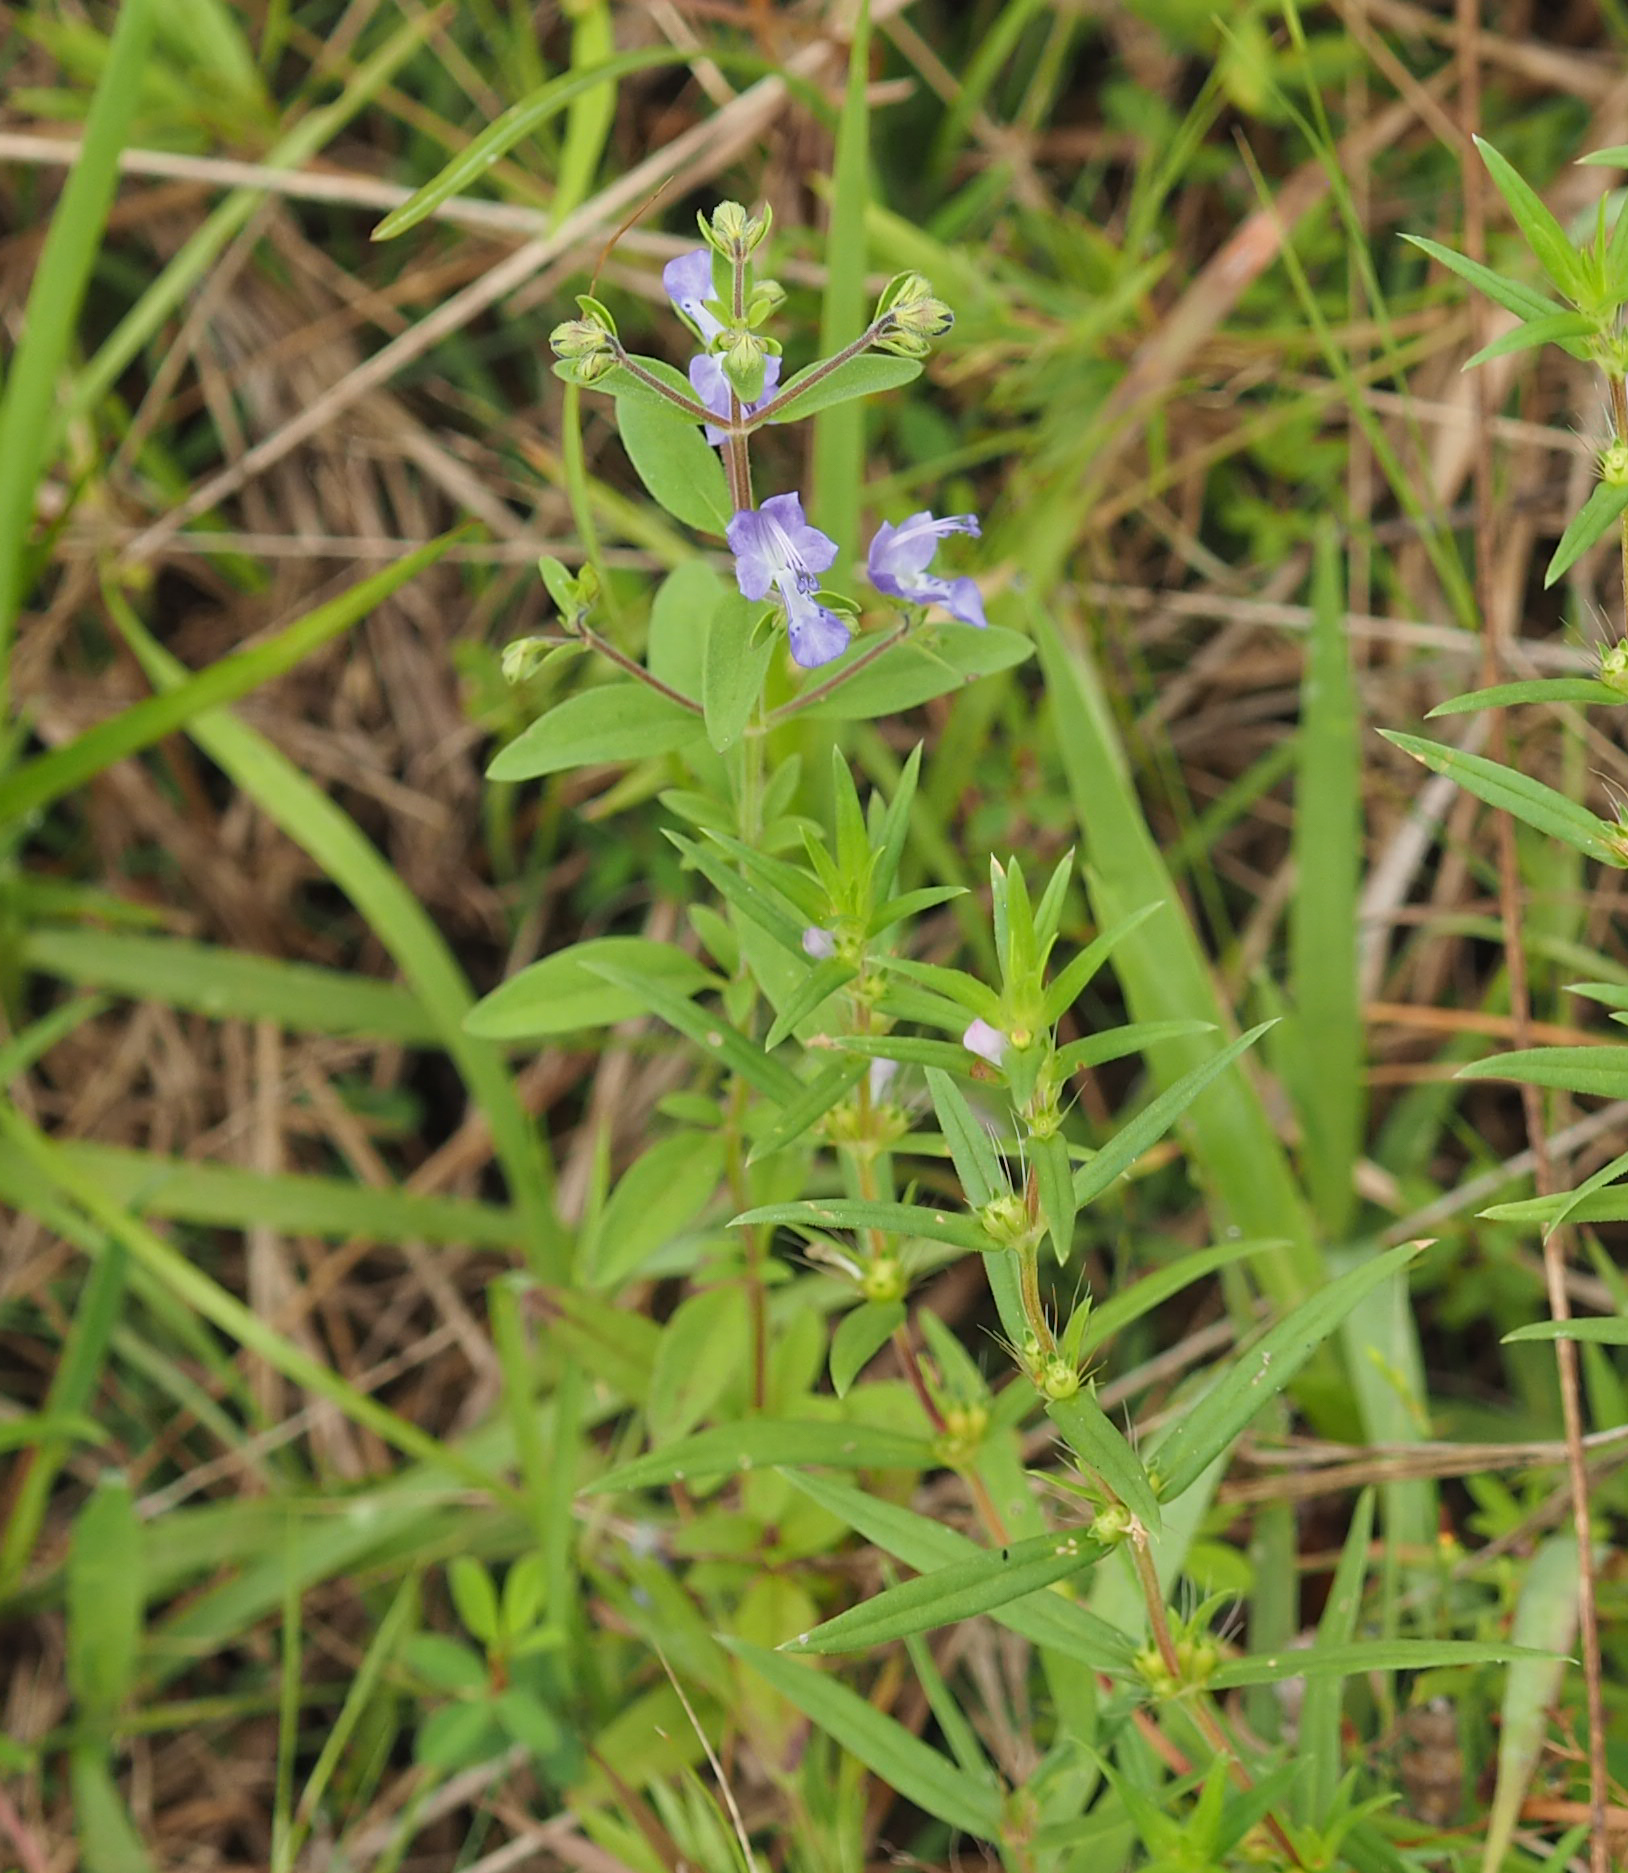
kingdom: Plantae
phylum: Tracheophyta
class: Magnoliopsida
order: Lamiales
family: Lamiaceae
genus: Trichostema
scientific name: Trichostema dichotomum
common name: Bastard pennyroyal
